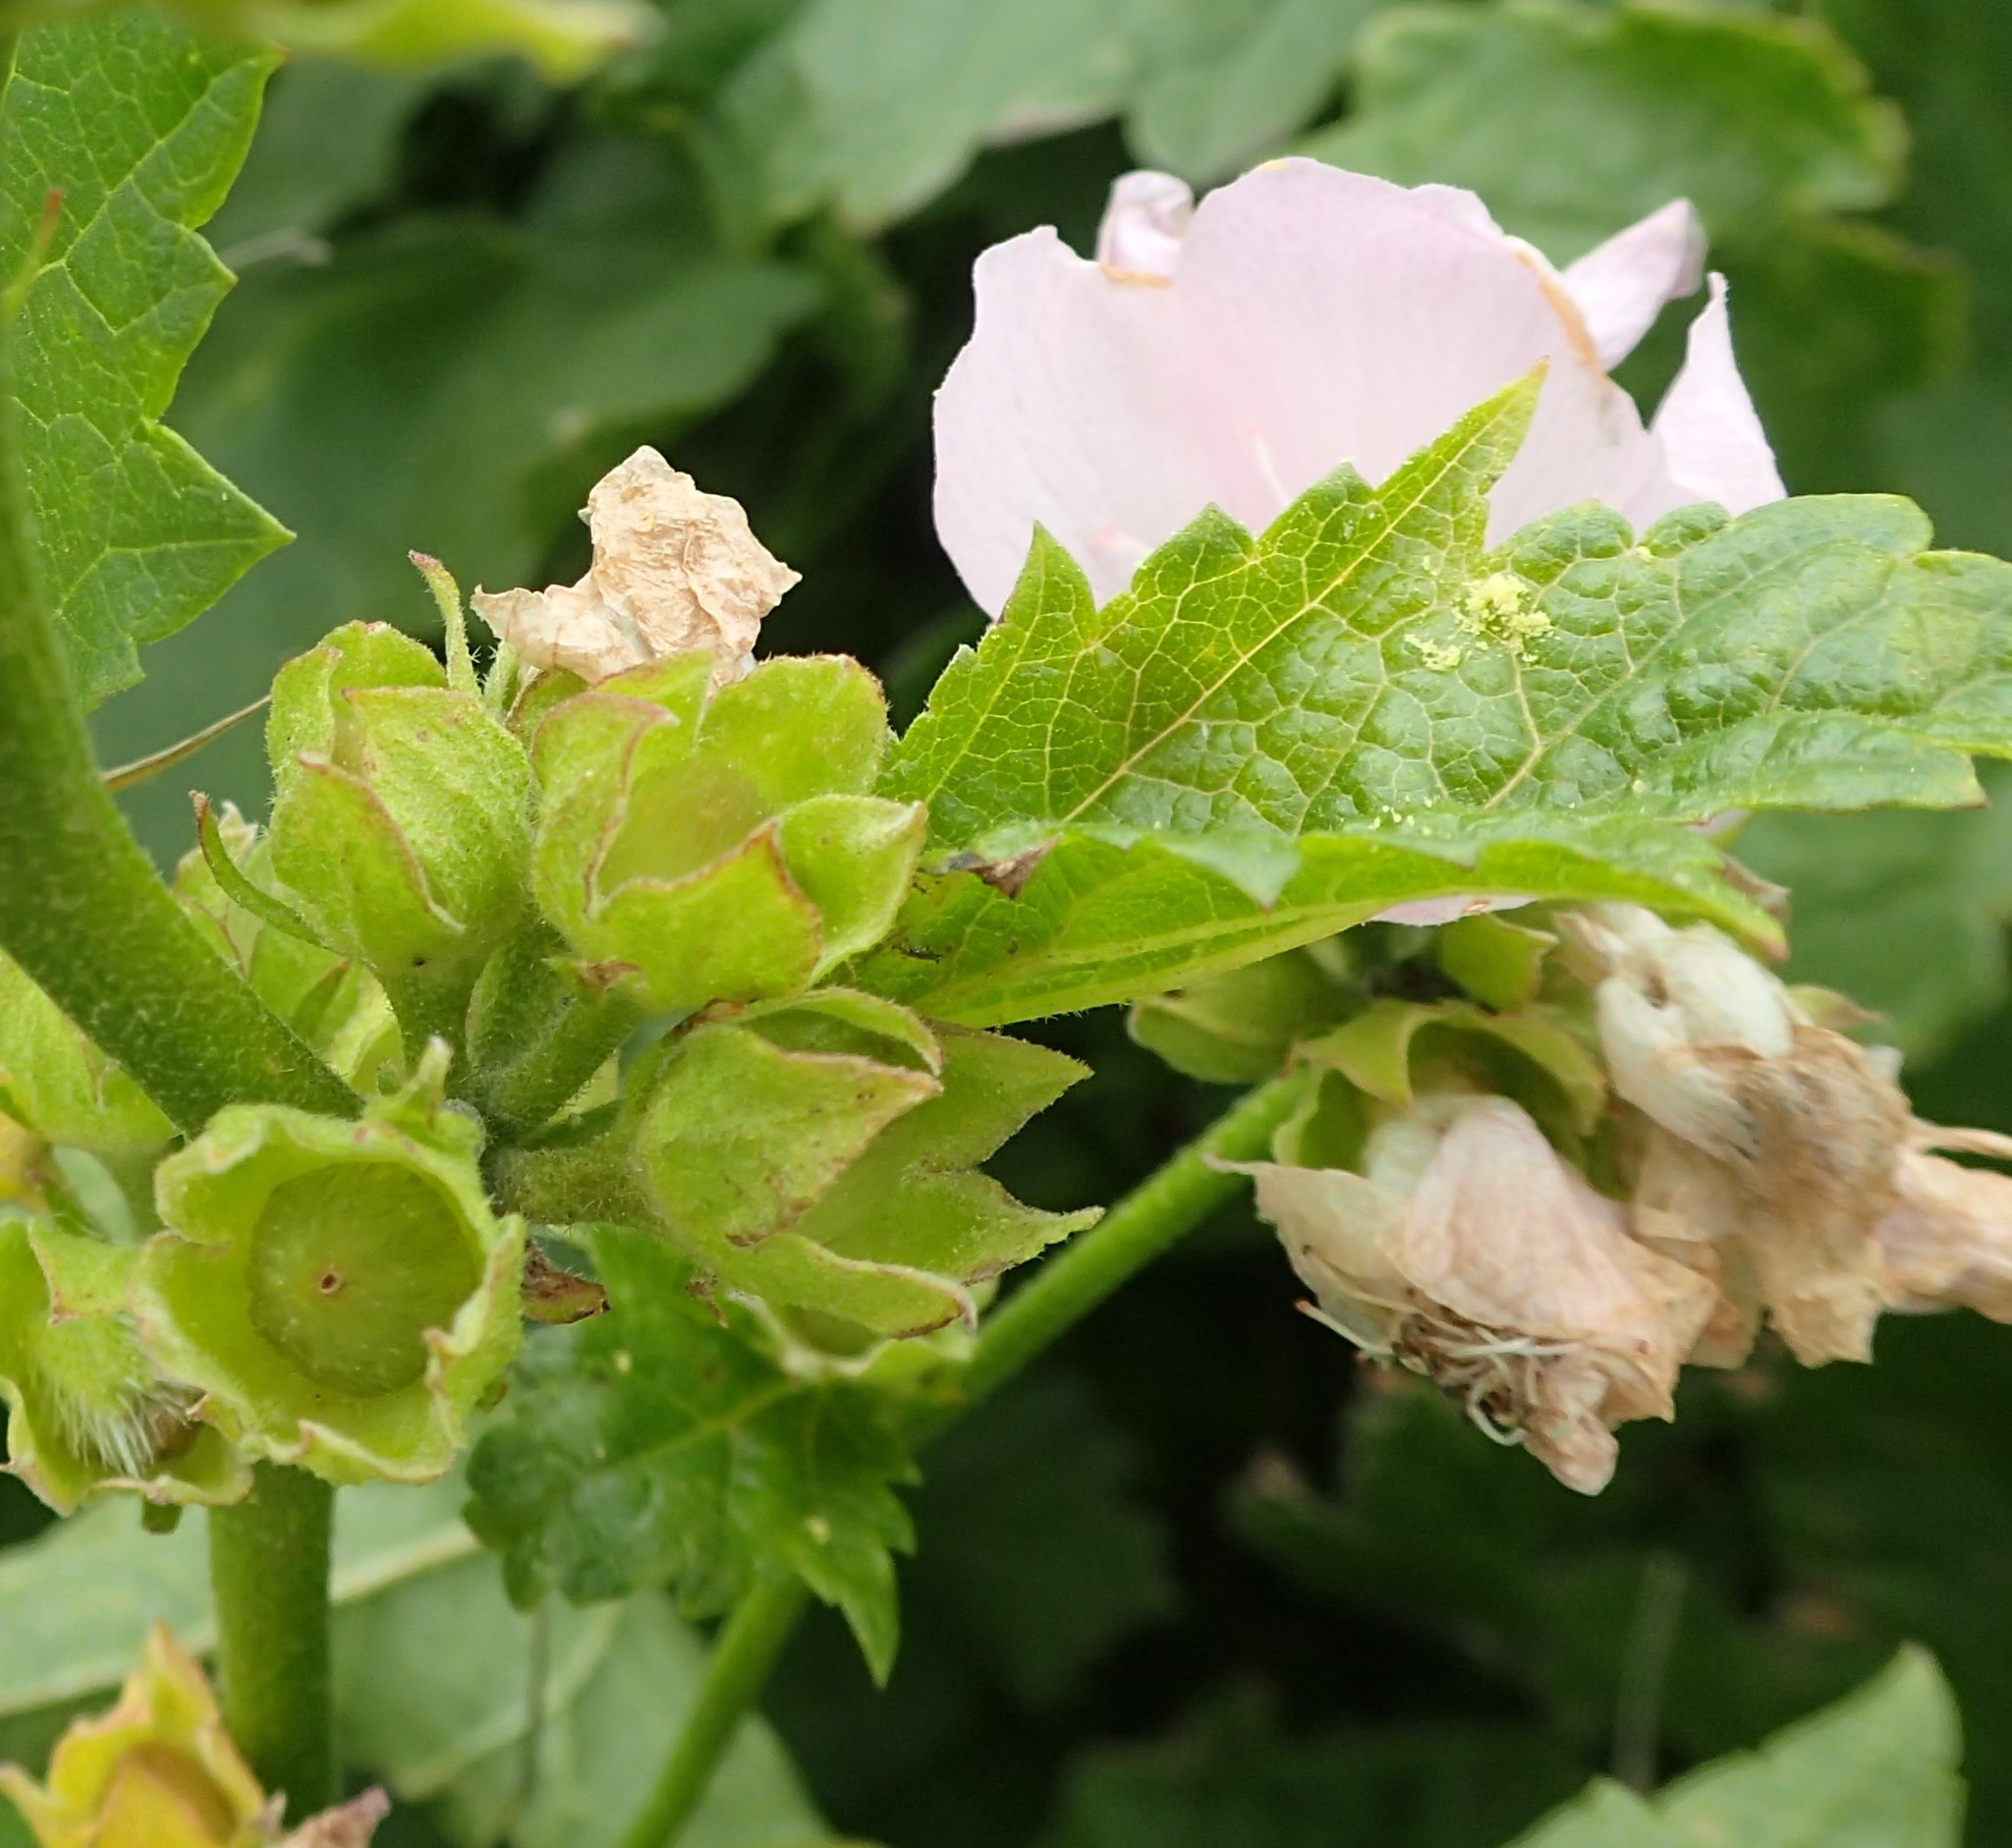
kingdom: Plantae
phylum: Tracheophyta
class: Magnoliopsida
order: Malvales
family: Malvaceae
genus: Iliamna
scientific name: Iliamna rivularis
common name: Wild hollyhock
